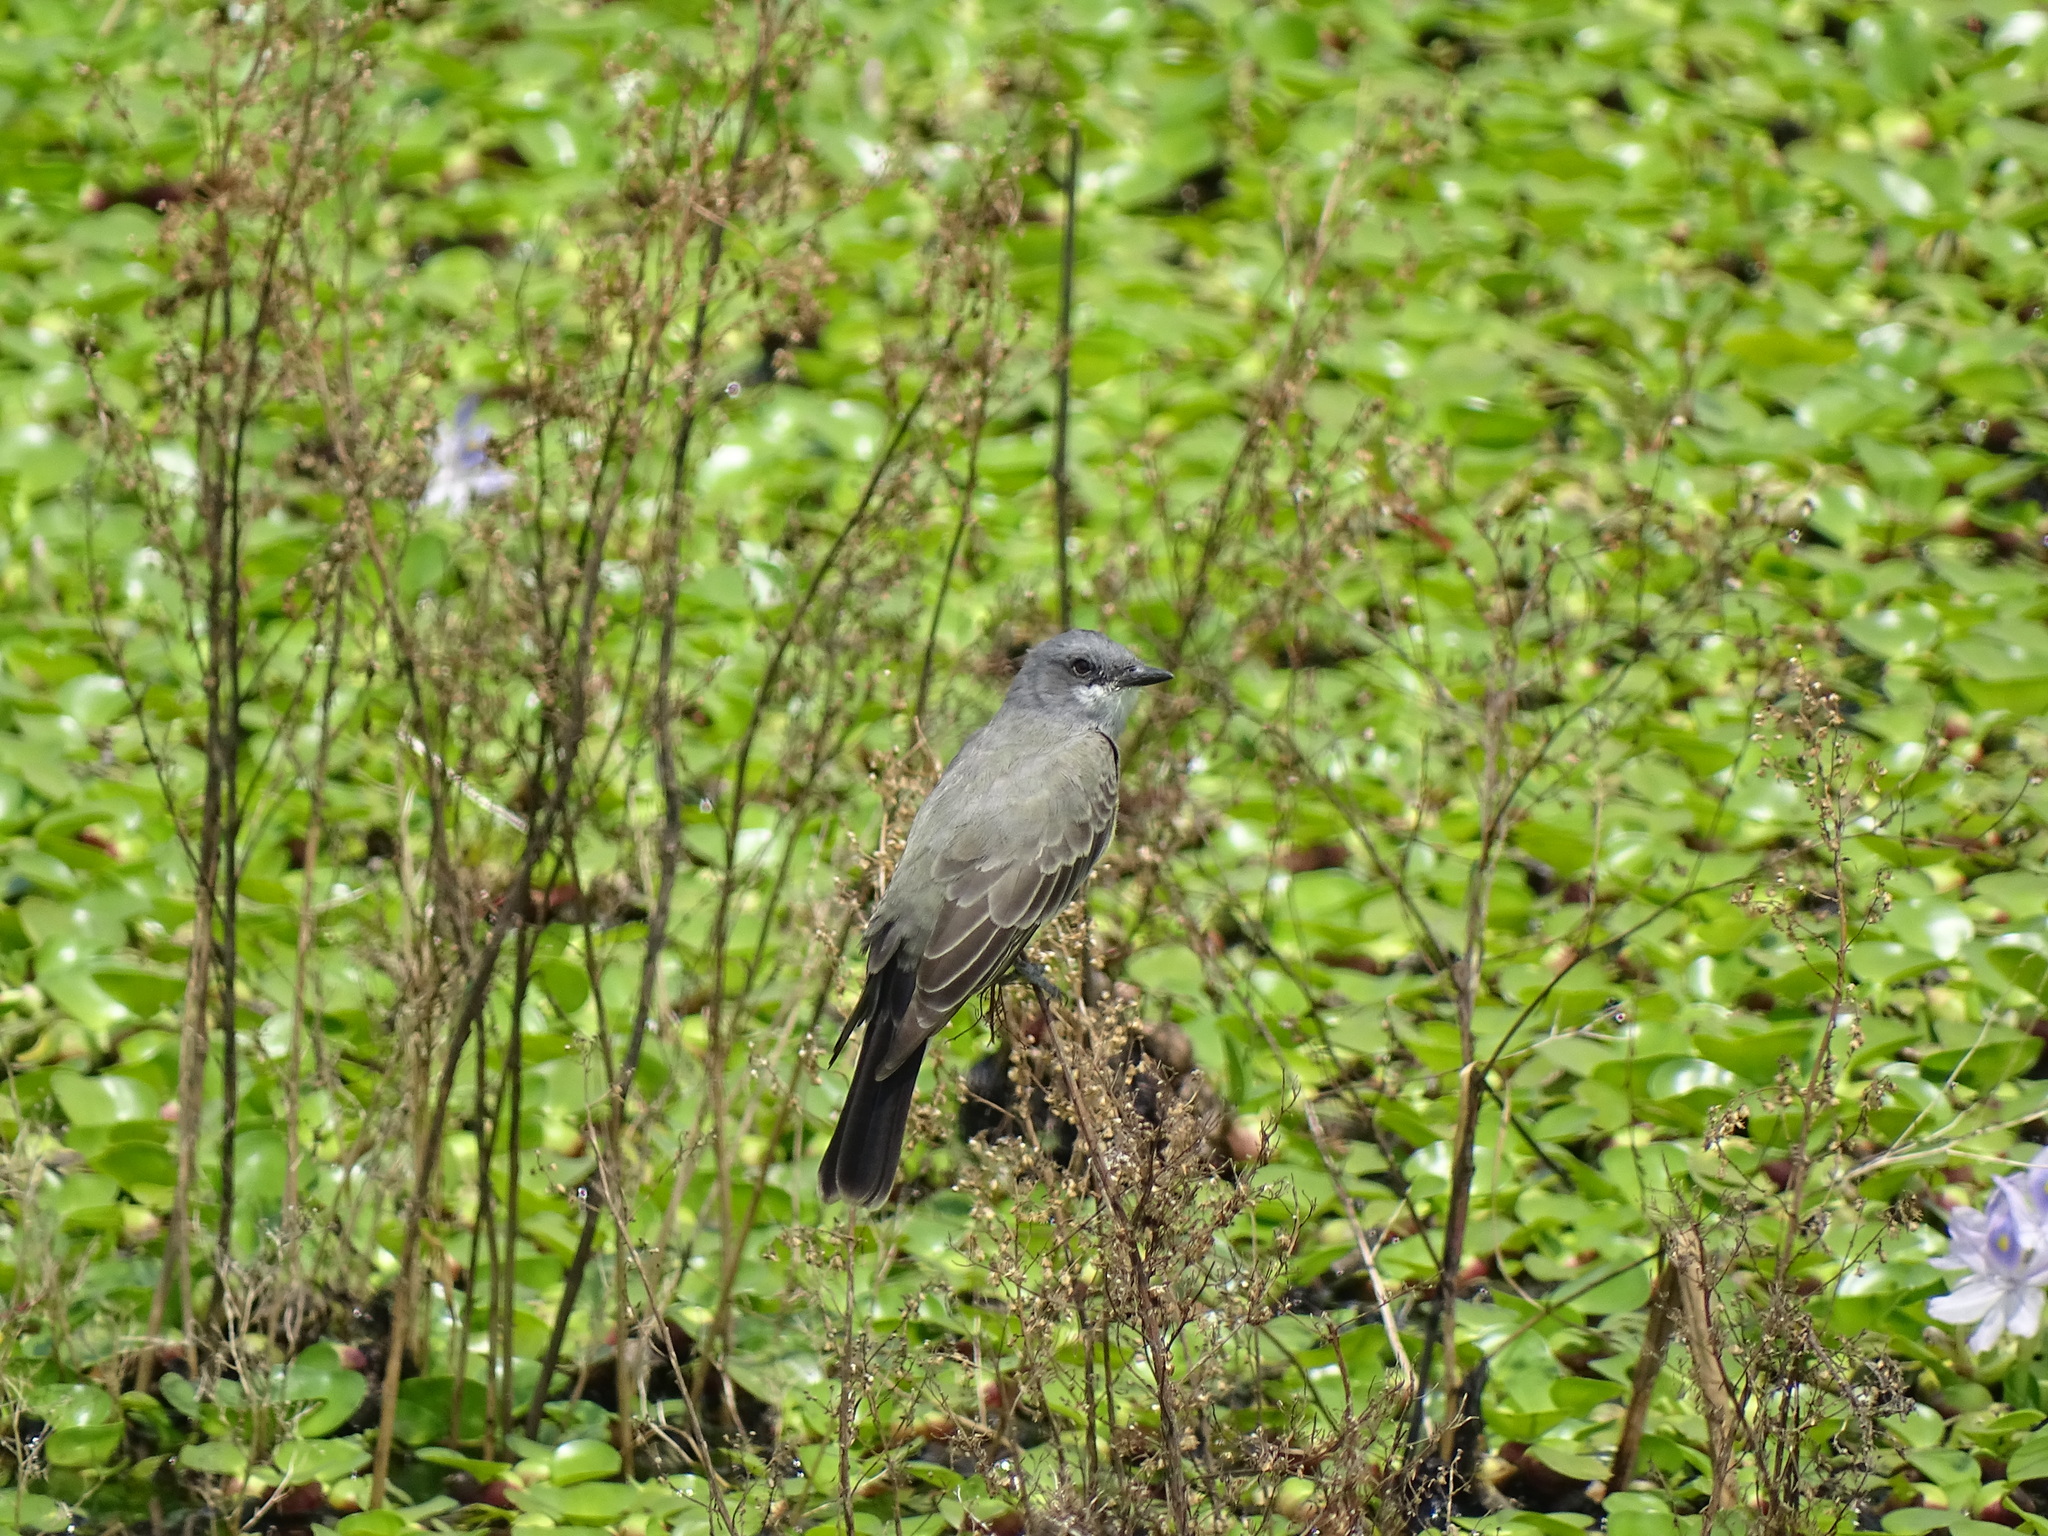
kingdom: Animalia
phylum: Chordata
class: Aves
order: Passeriformes
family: Tyrannidae
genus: Tyrannus
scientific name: Tyrannus vociferans
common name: Cassin's kingbird
